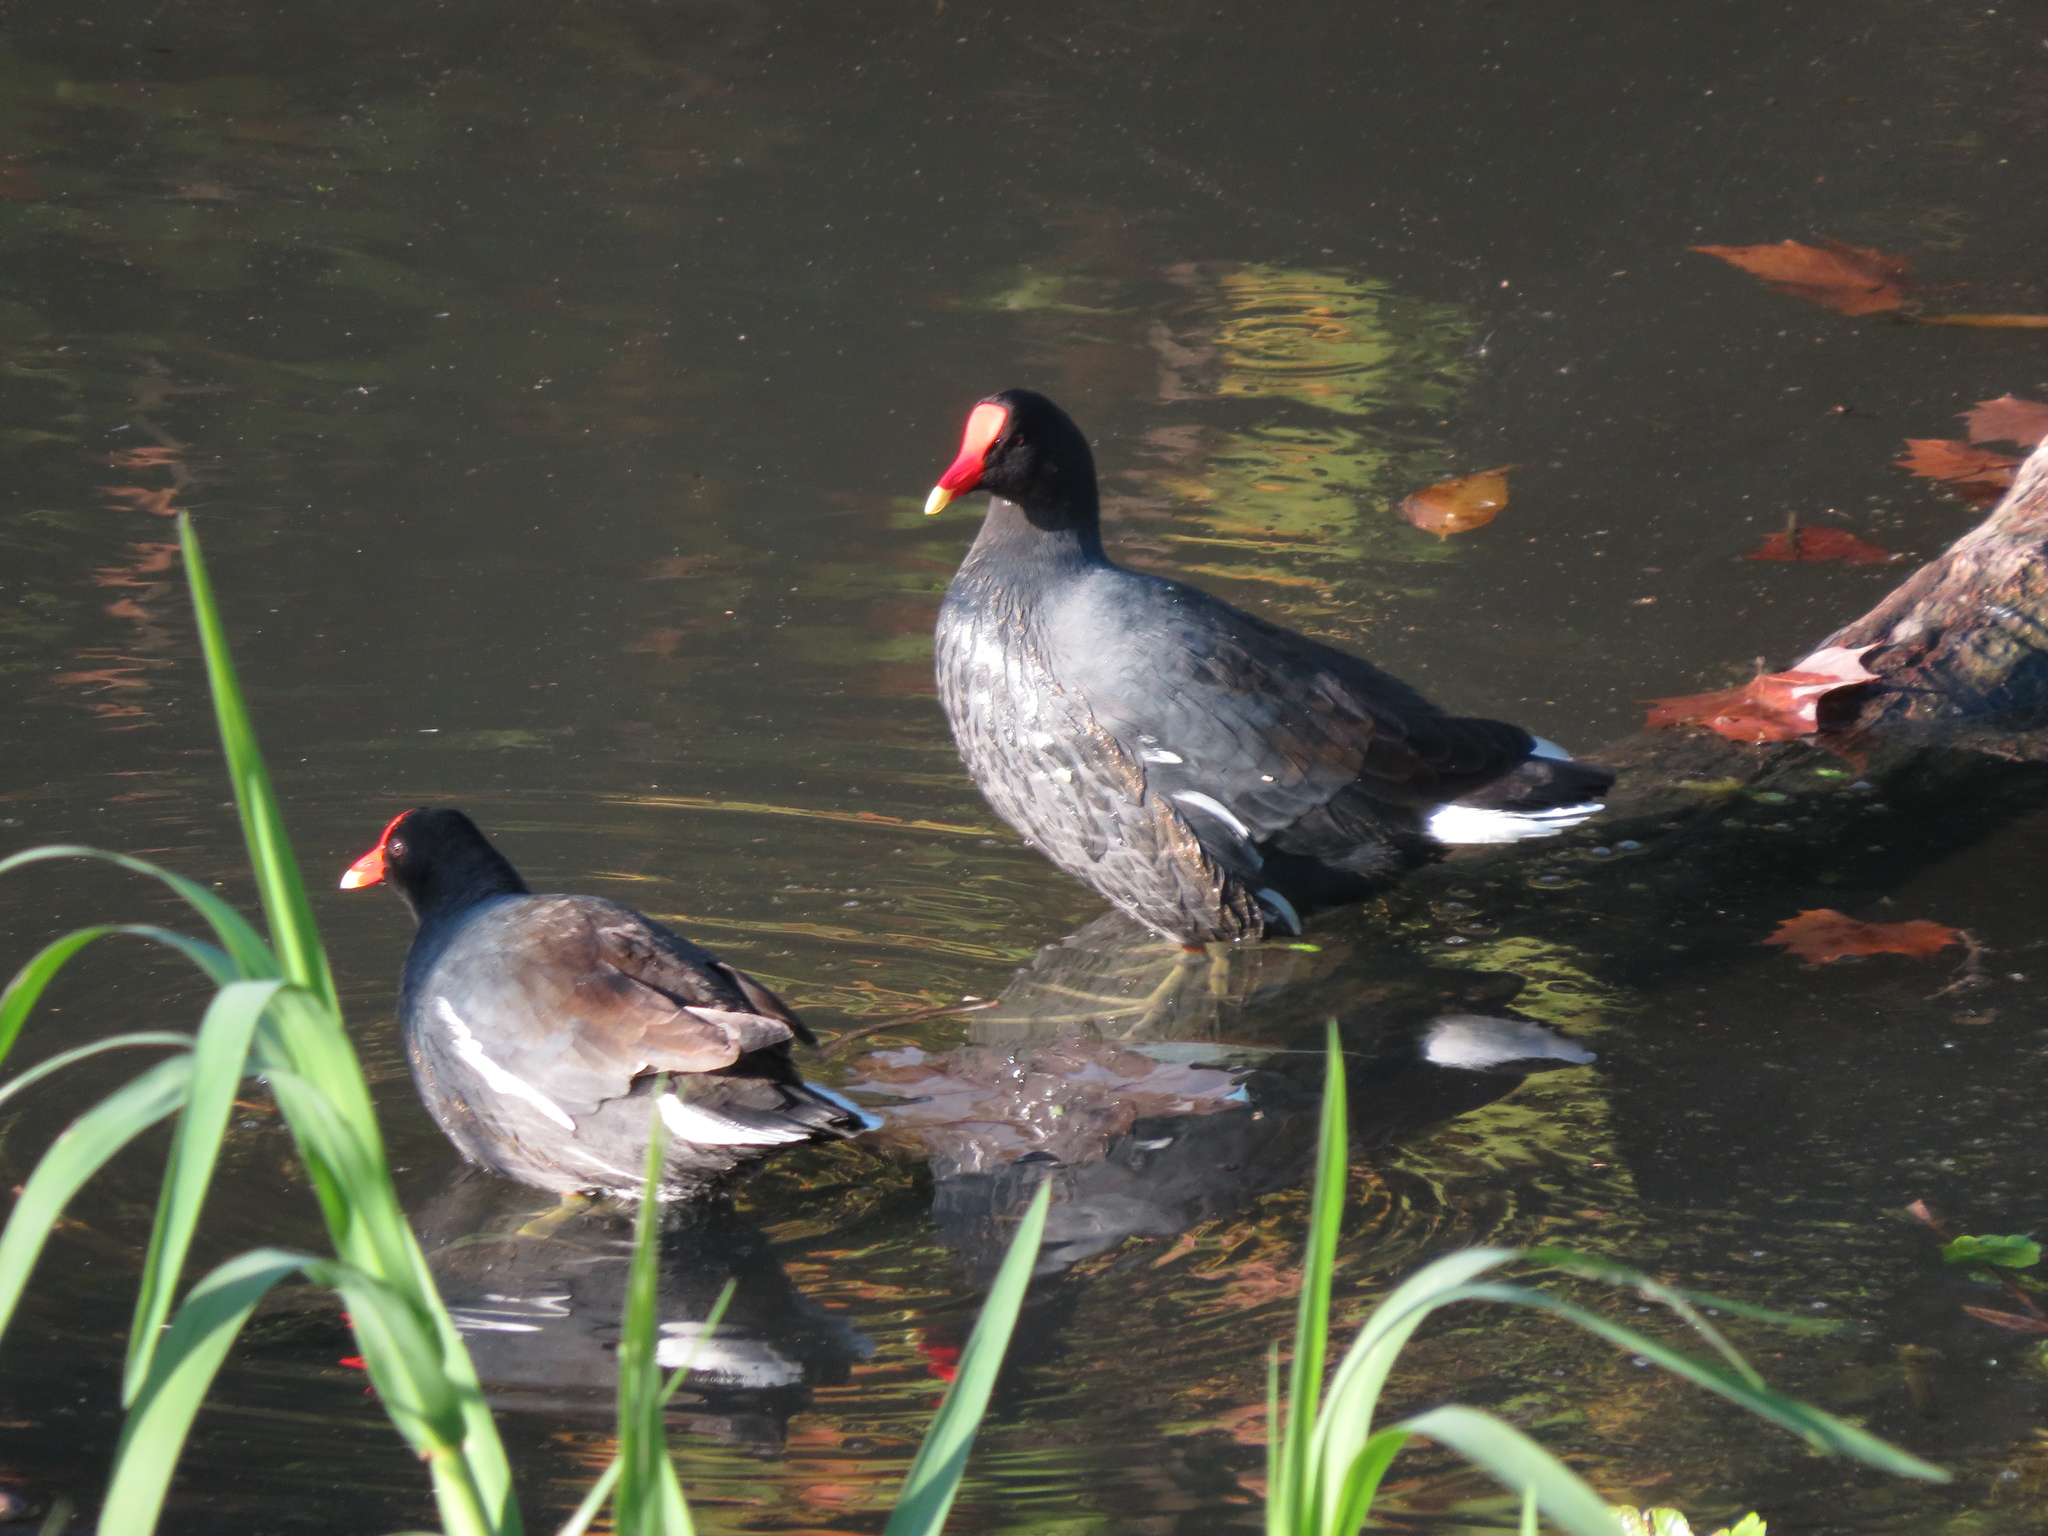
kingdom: Animalia
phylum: Chordata
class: Aves
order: Gruiformes
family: Rallidae
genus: Gallinula
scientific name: Gallinula chloropus
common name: Common moorhen
